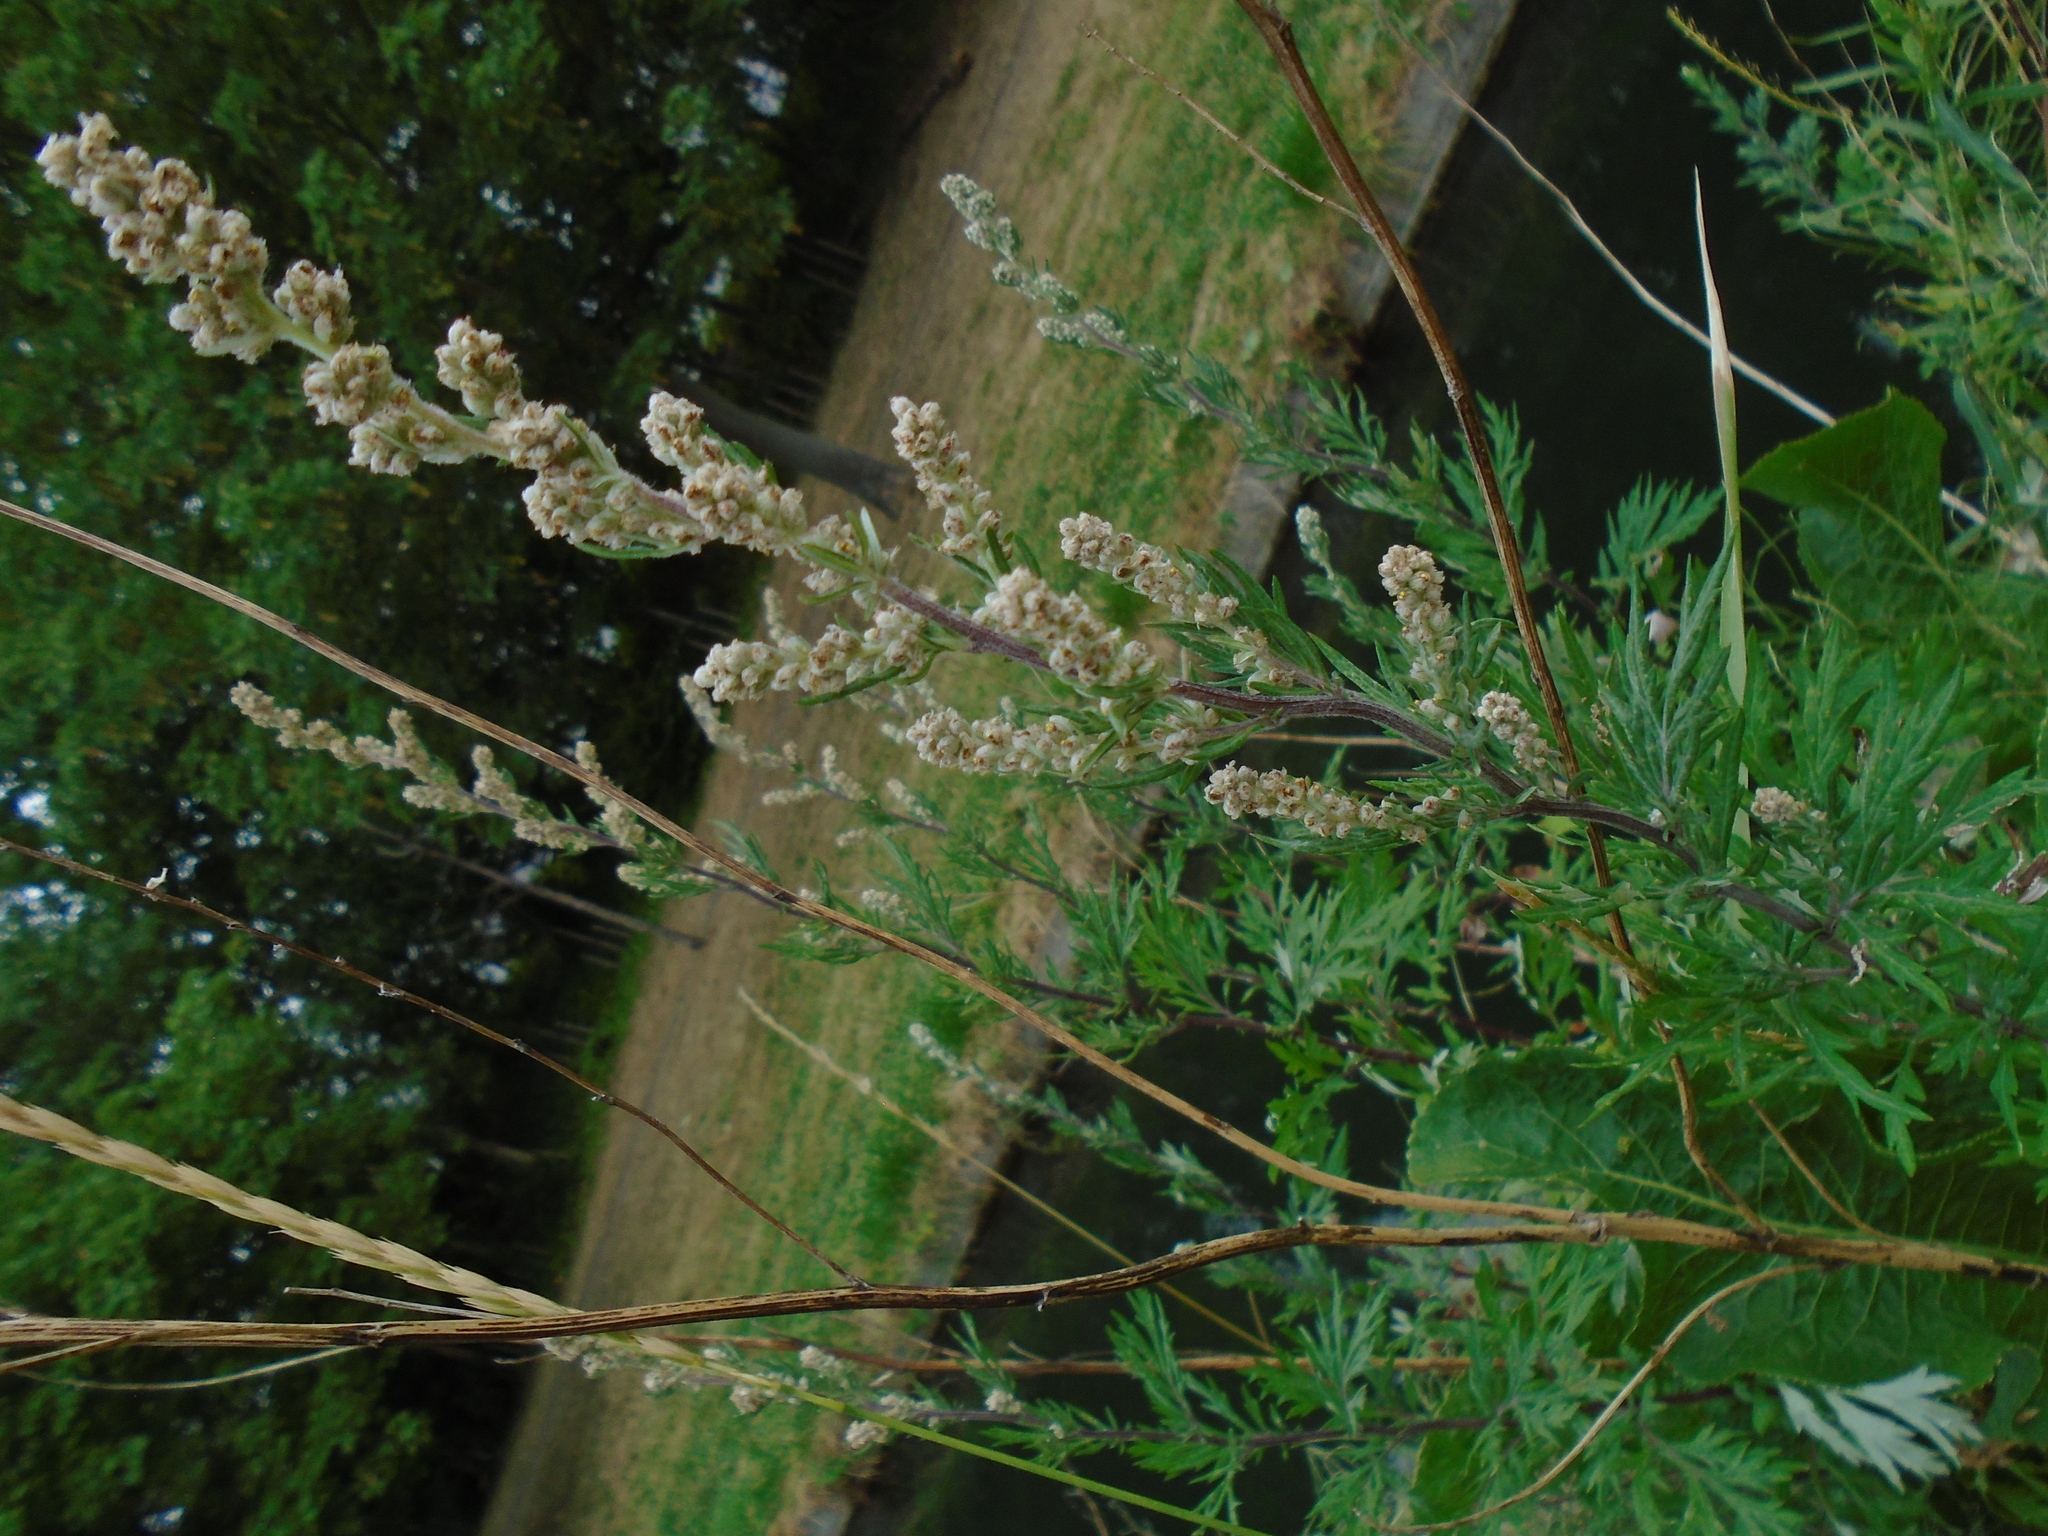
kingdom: Plantae
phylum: Tracheophyta
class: Magnoliopsida
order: Asterales
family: Asteraceae
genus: Artemisia
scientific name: Artemisia vulgaris
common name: Mugwort
